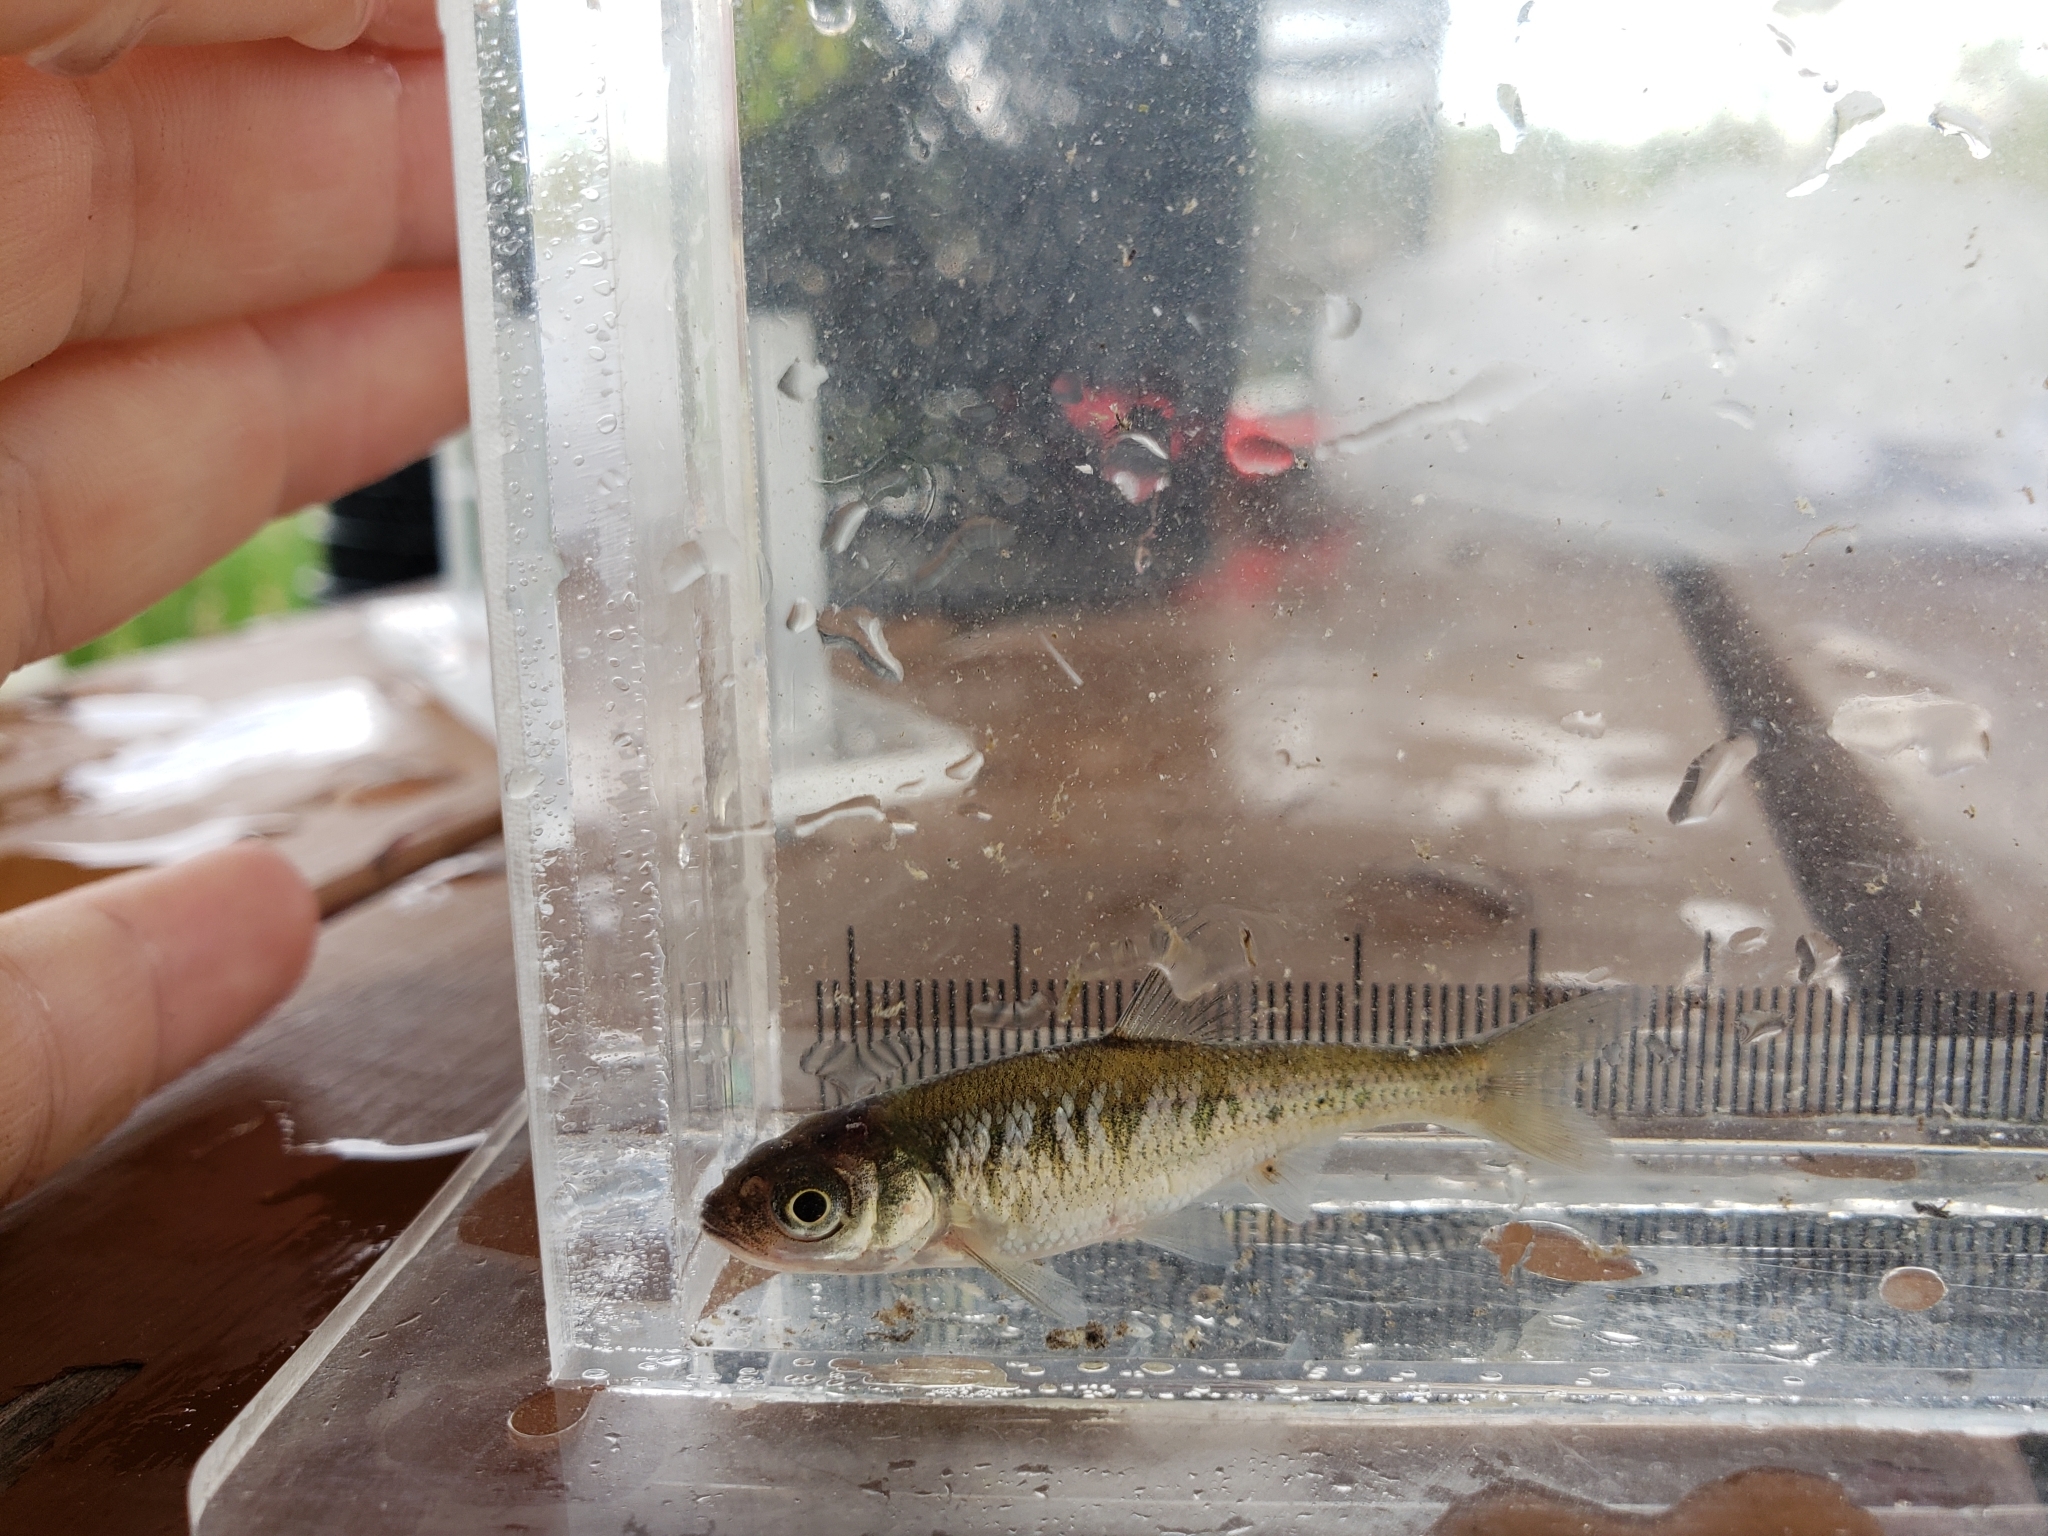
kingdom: Animalia
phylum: Chordata
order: Cypriniformes
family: Cyprinidae
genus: Luxilus
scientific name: Luxilus cornutus
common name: Common shiner
